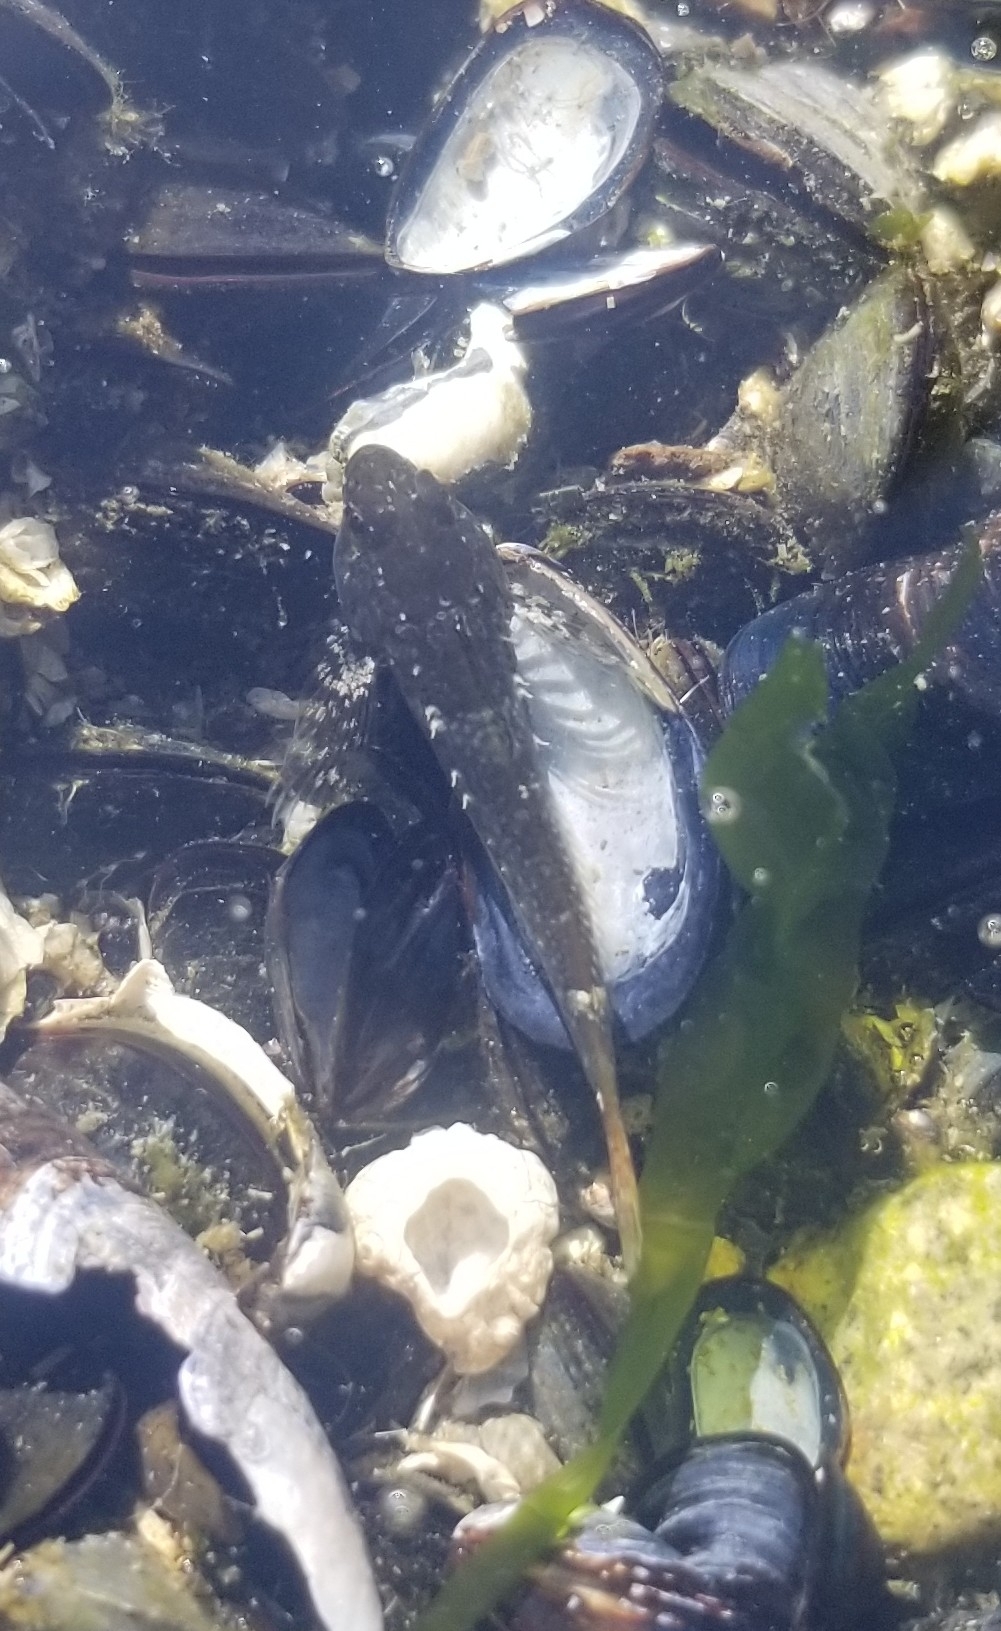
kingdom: Animalia
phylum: Chordata
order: Scorpaeniformes
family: Cottidae
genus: Oligocottus
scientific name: Oligocottus maculosus
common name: Tidepool sculpin
